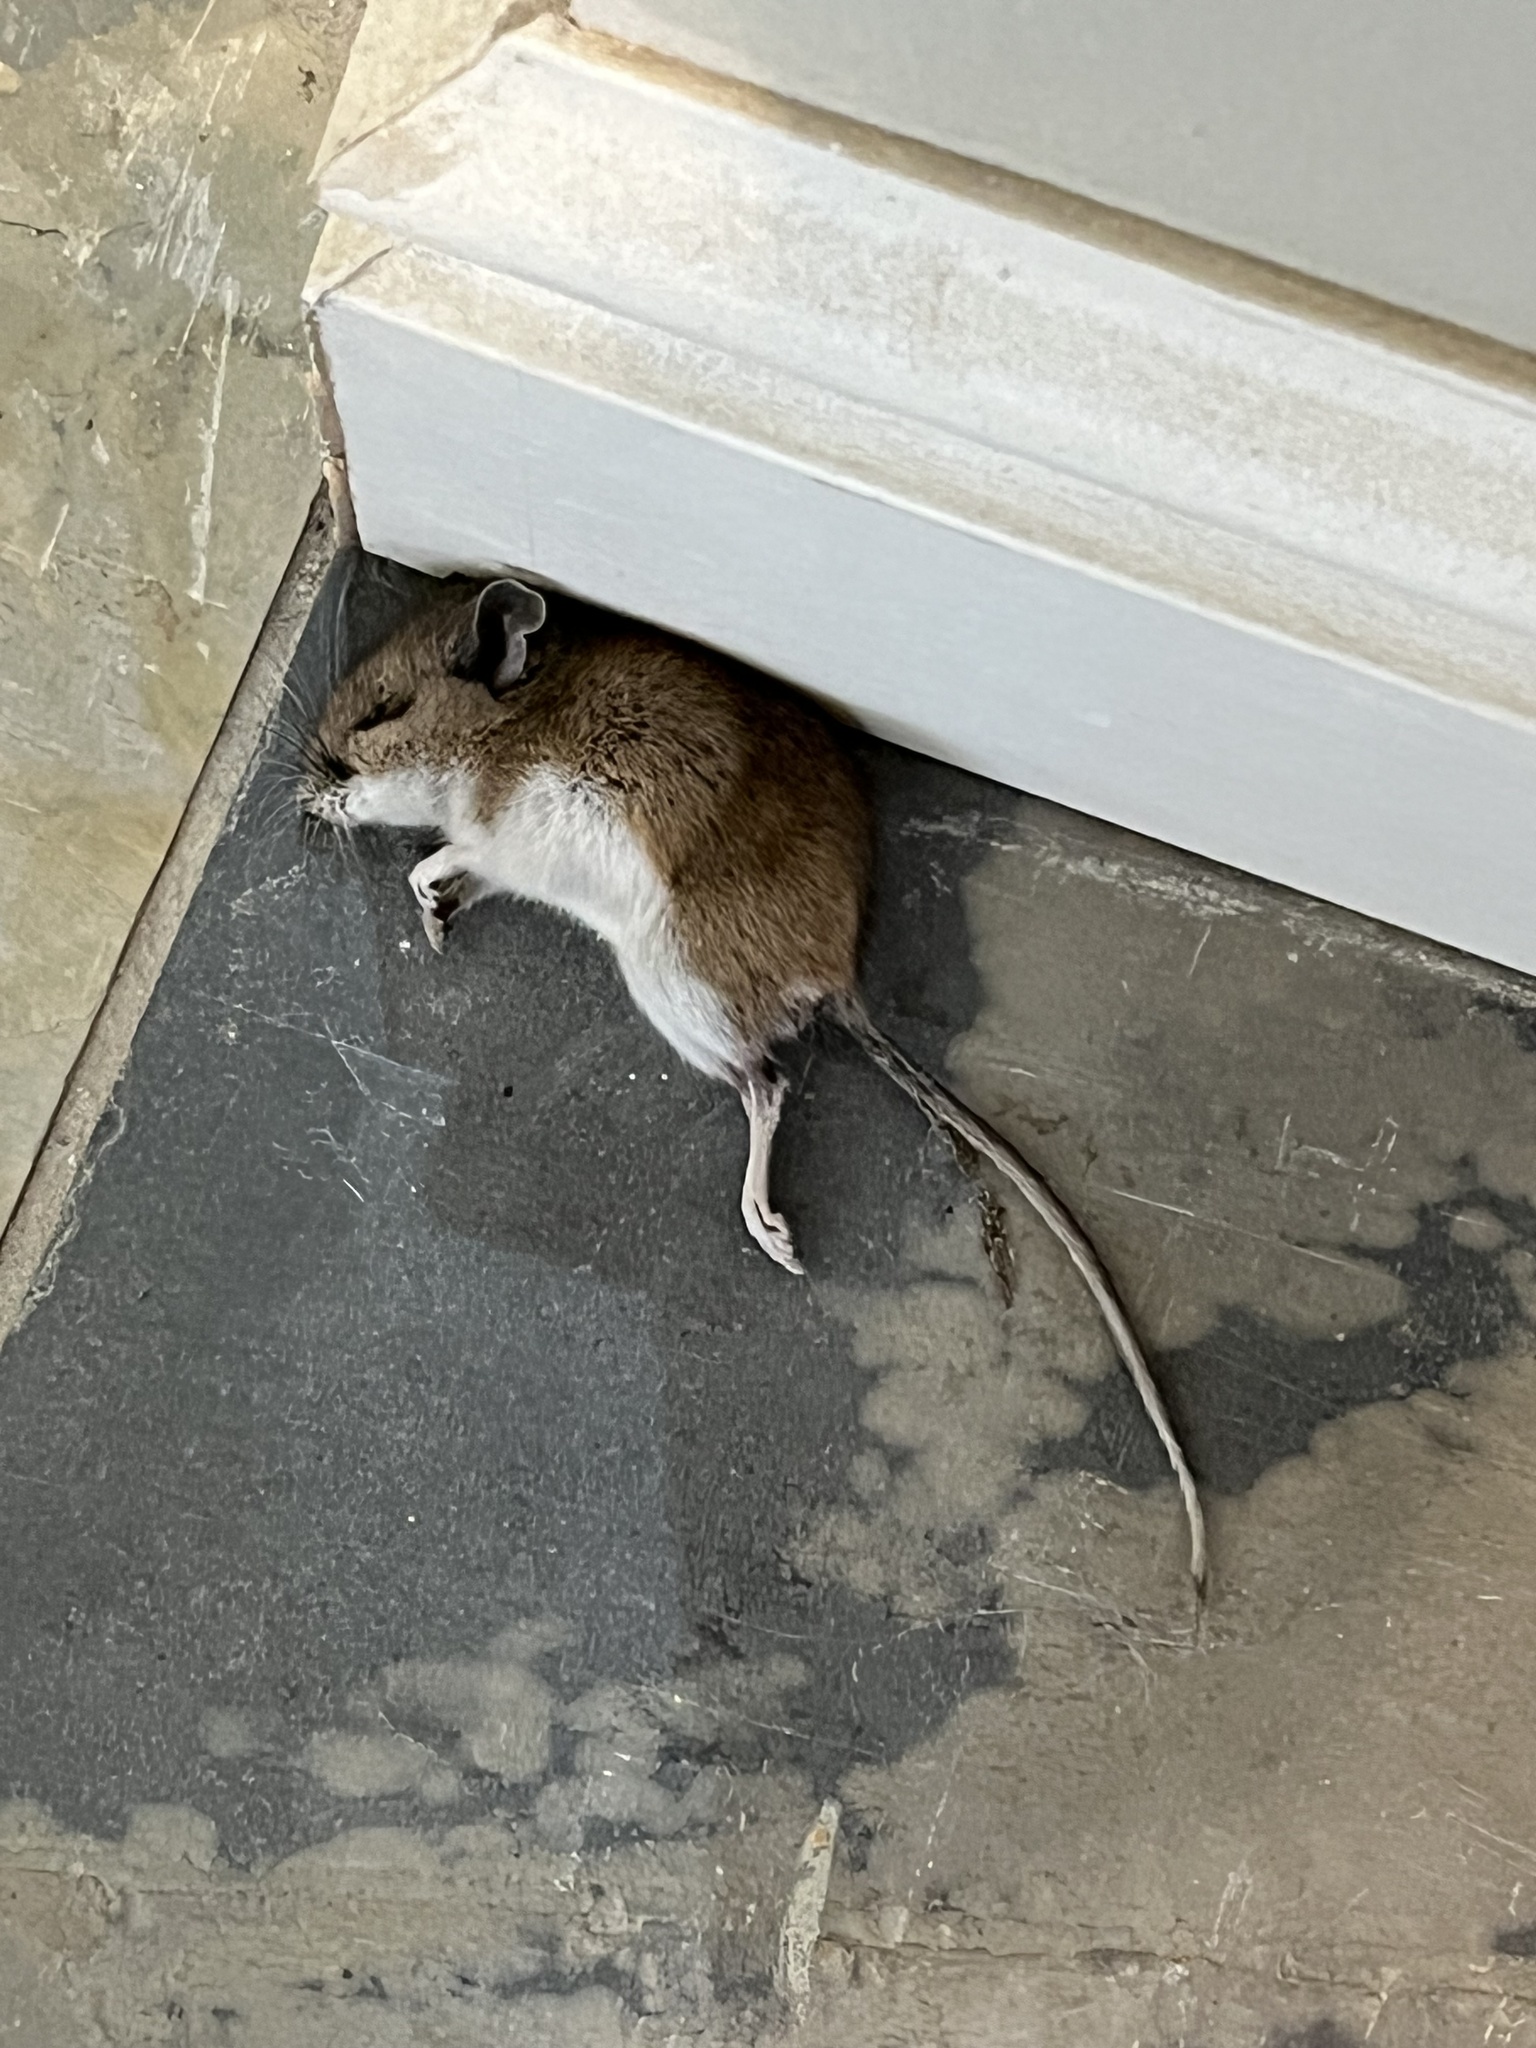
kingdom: Animalia
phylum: Chordata
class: Mammalia
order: Rodentia
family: Cricetidae
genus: Peromyscus
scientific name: Peromyscus leucopus
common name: White-footed deermouse
